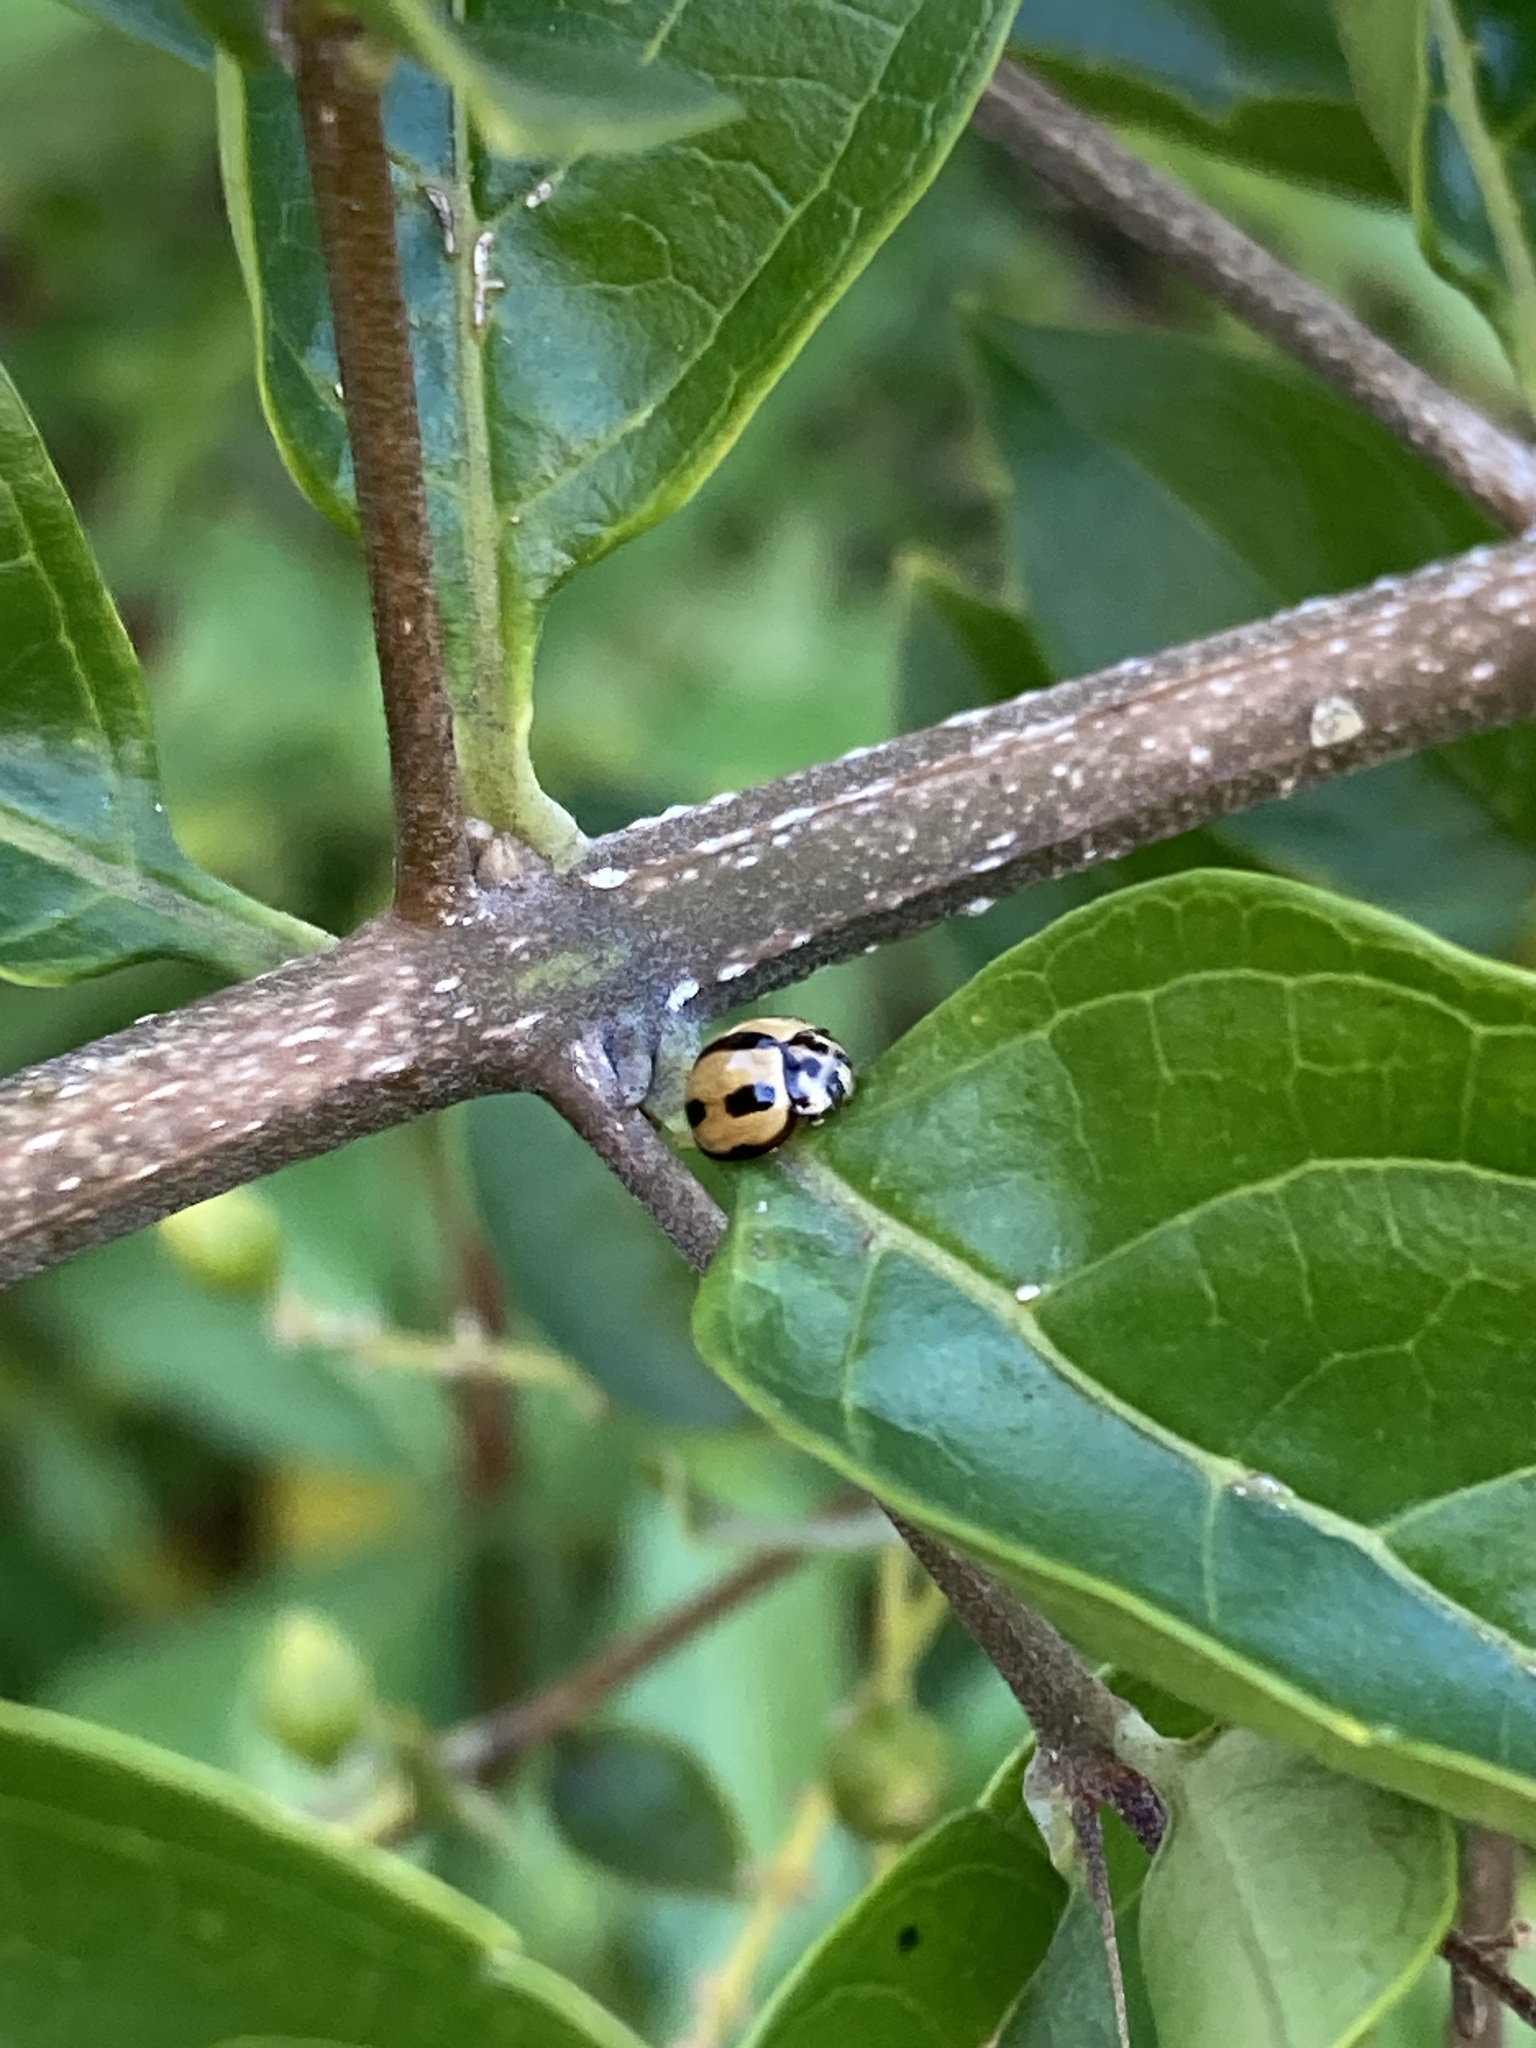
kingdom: Animalia
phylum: Arthropoda
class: Insecta
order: Coleoptera
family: Coccinellidae
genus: Coelophora
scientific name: Coelophora inaequalis
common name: Common australian lady beetle
